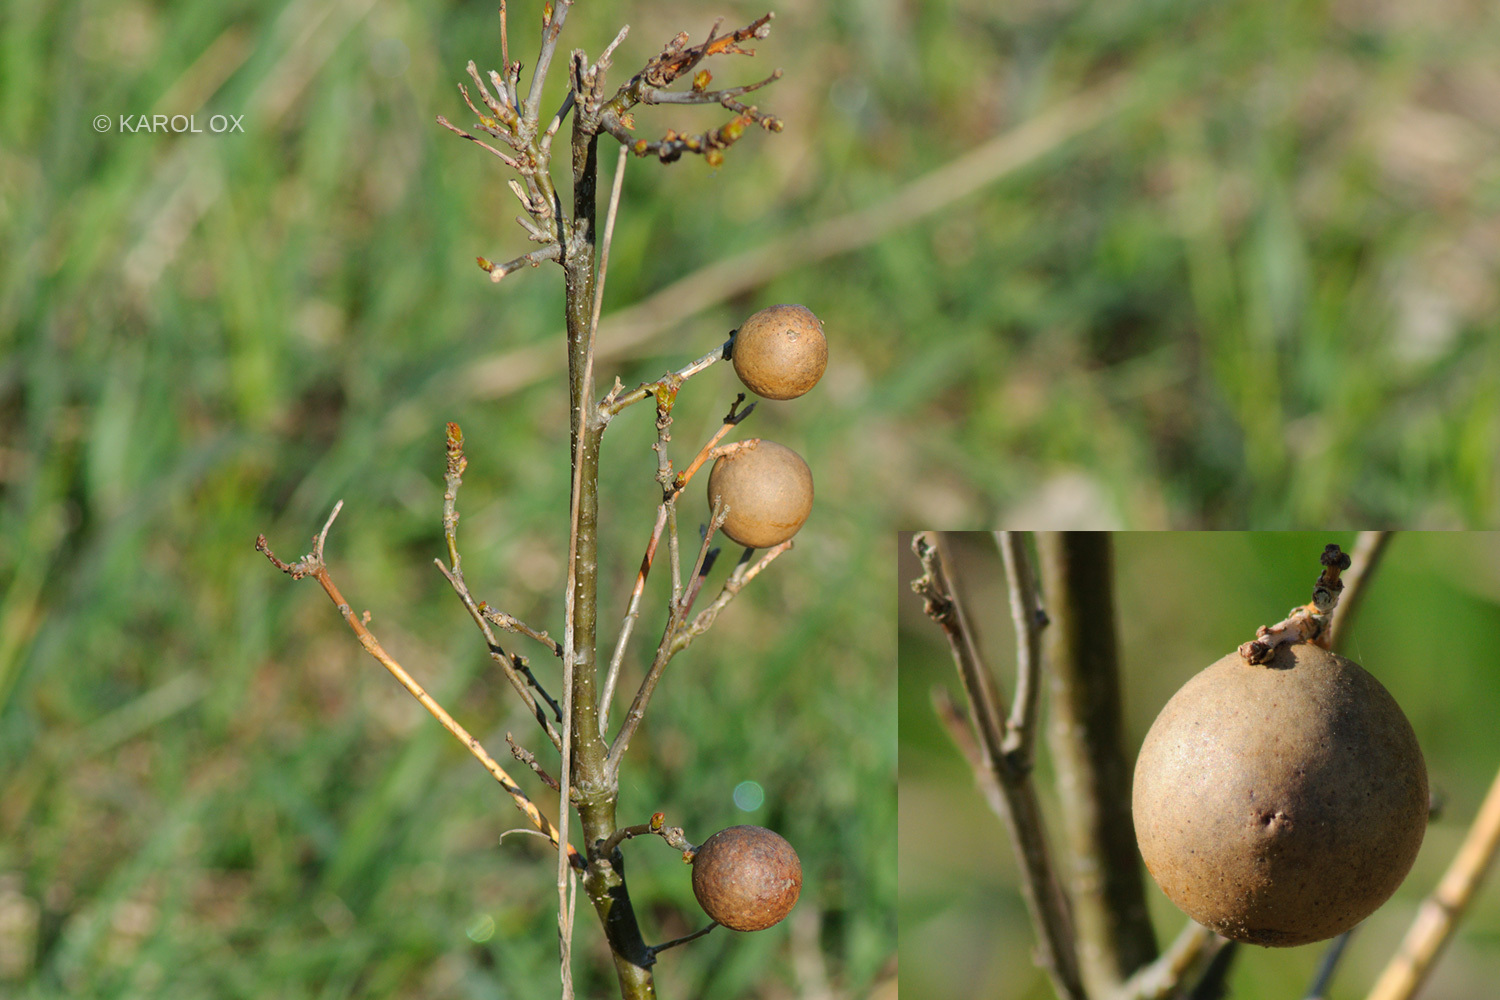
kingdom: Animalia
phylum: Arthropoda
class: Insecta
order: Hymenoptera
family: Cynipidae
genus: Andricus
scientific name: Andricus kollari
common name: Marble gall
